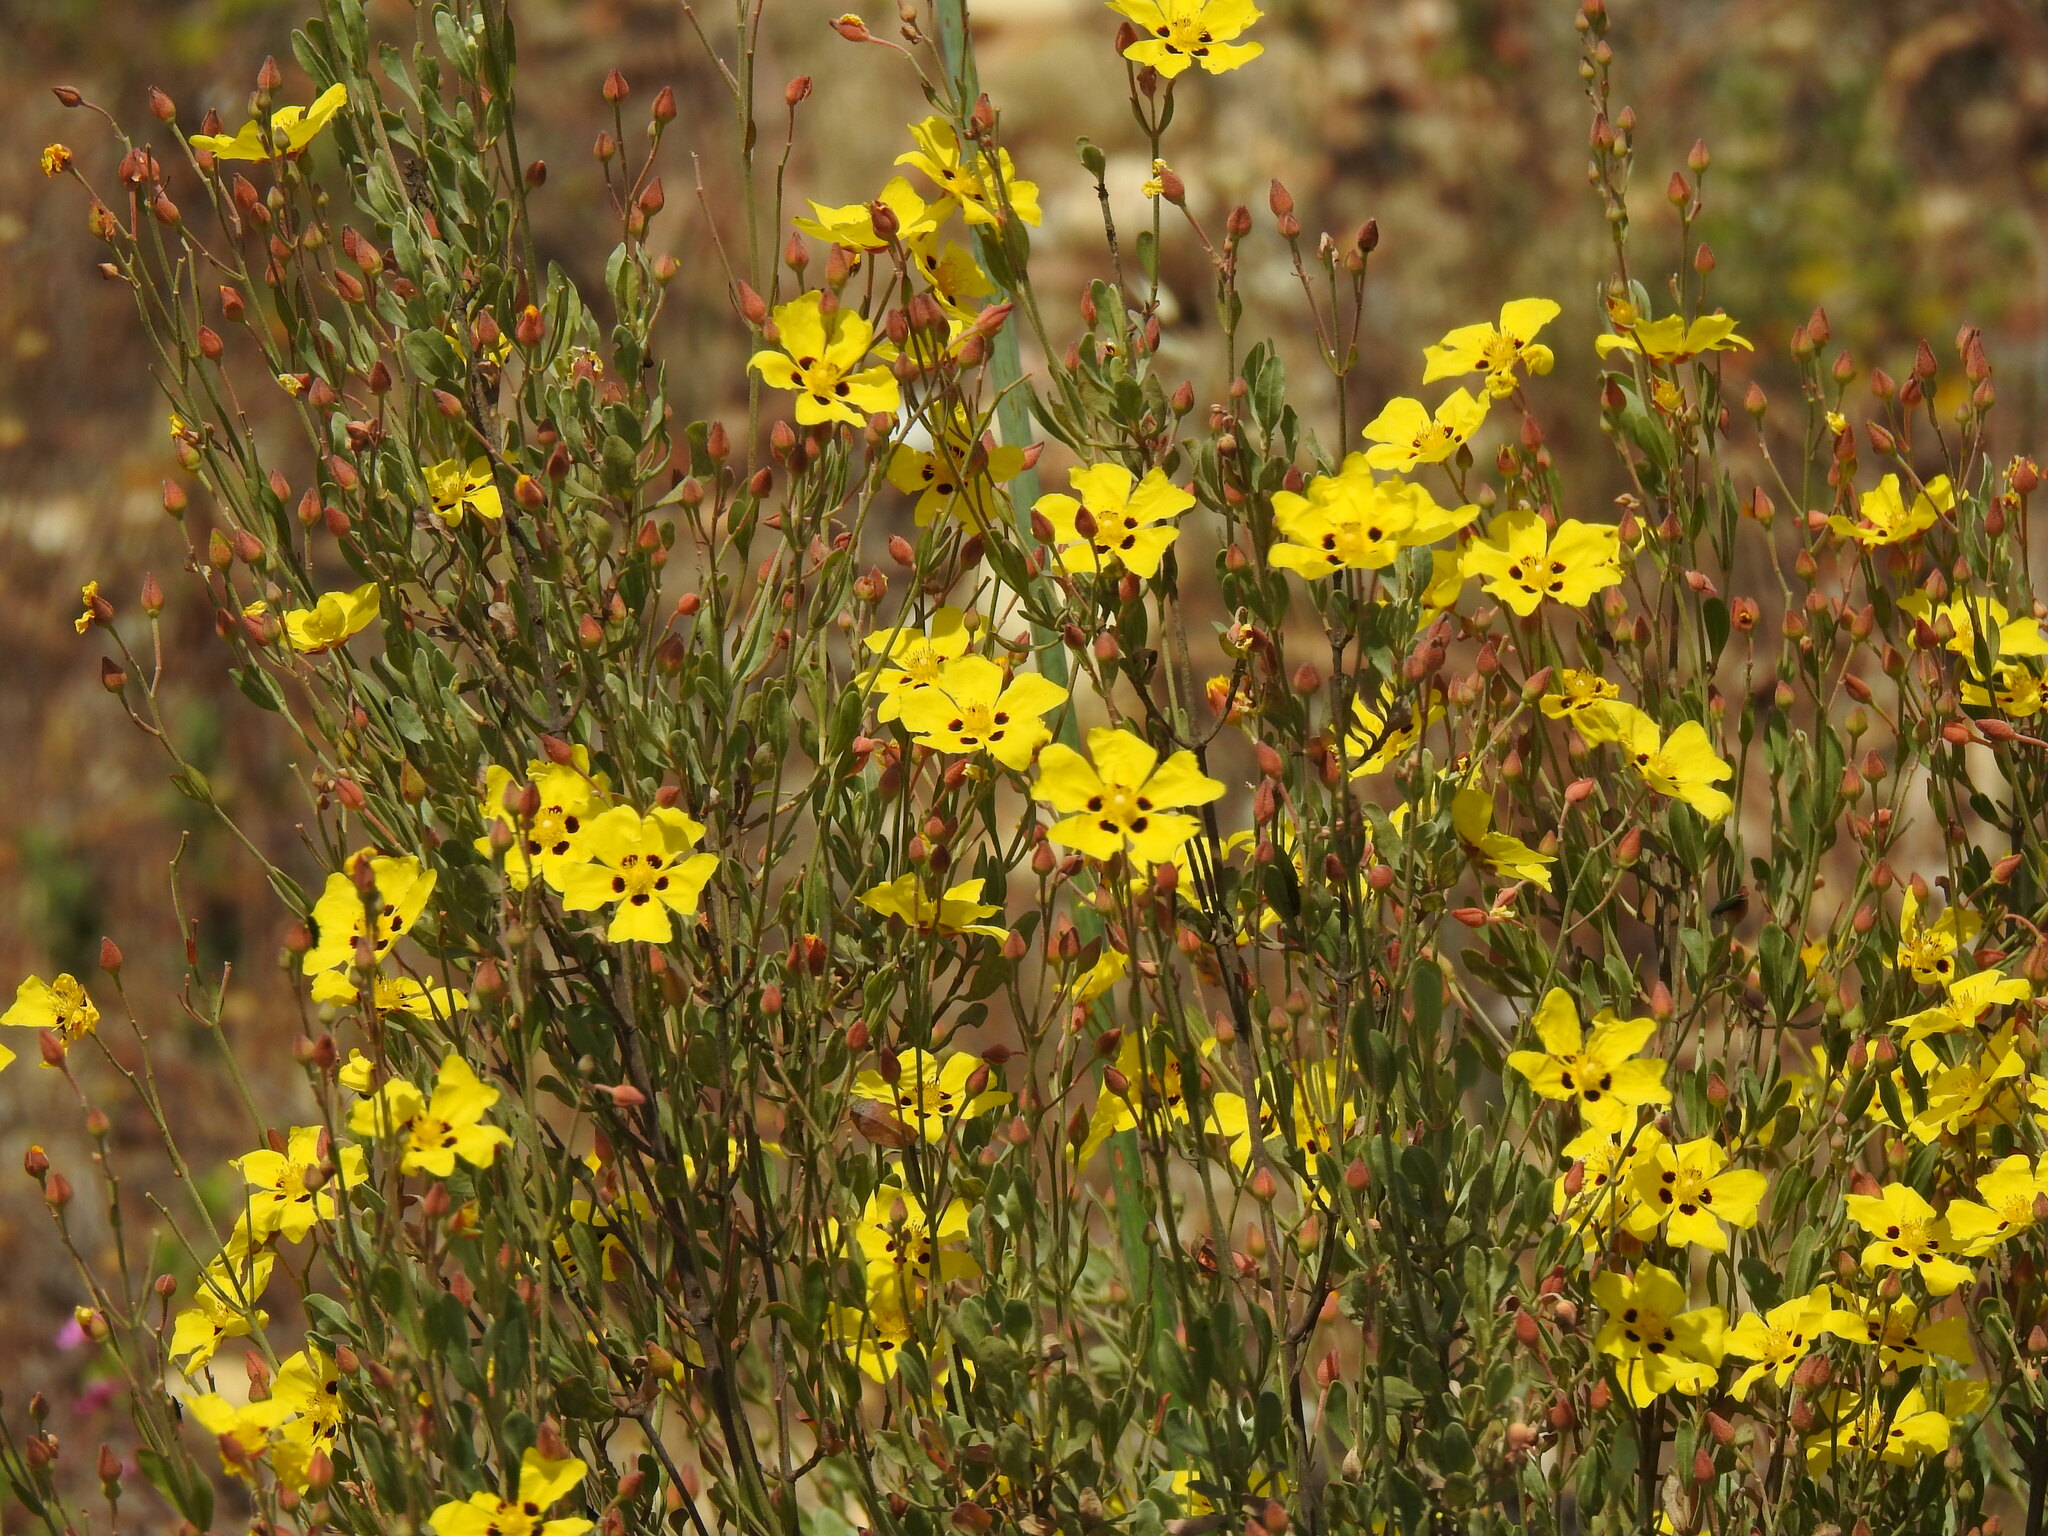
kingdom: Plantae
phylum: Tracheophyta
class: Magnoliopsida
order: Malvales
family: Cistaceae
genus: Halimium
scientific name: Halimium halimifolium
